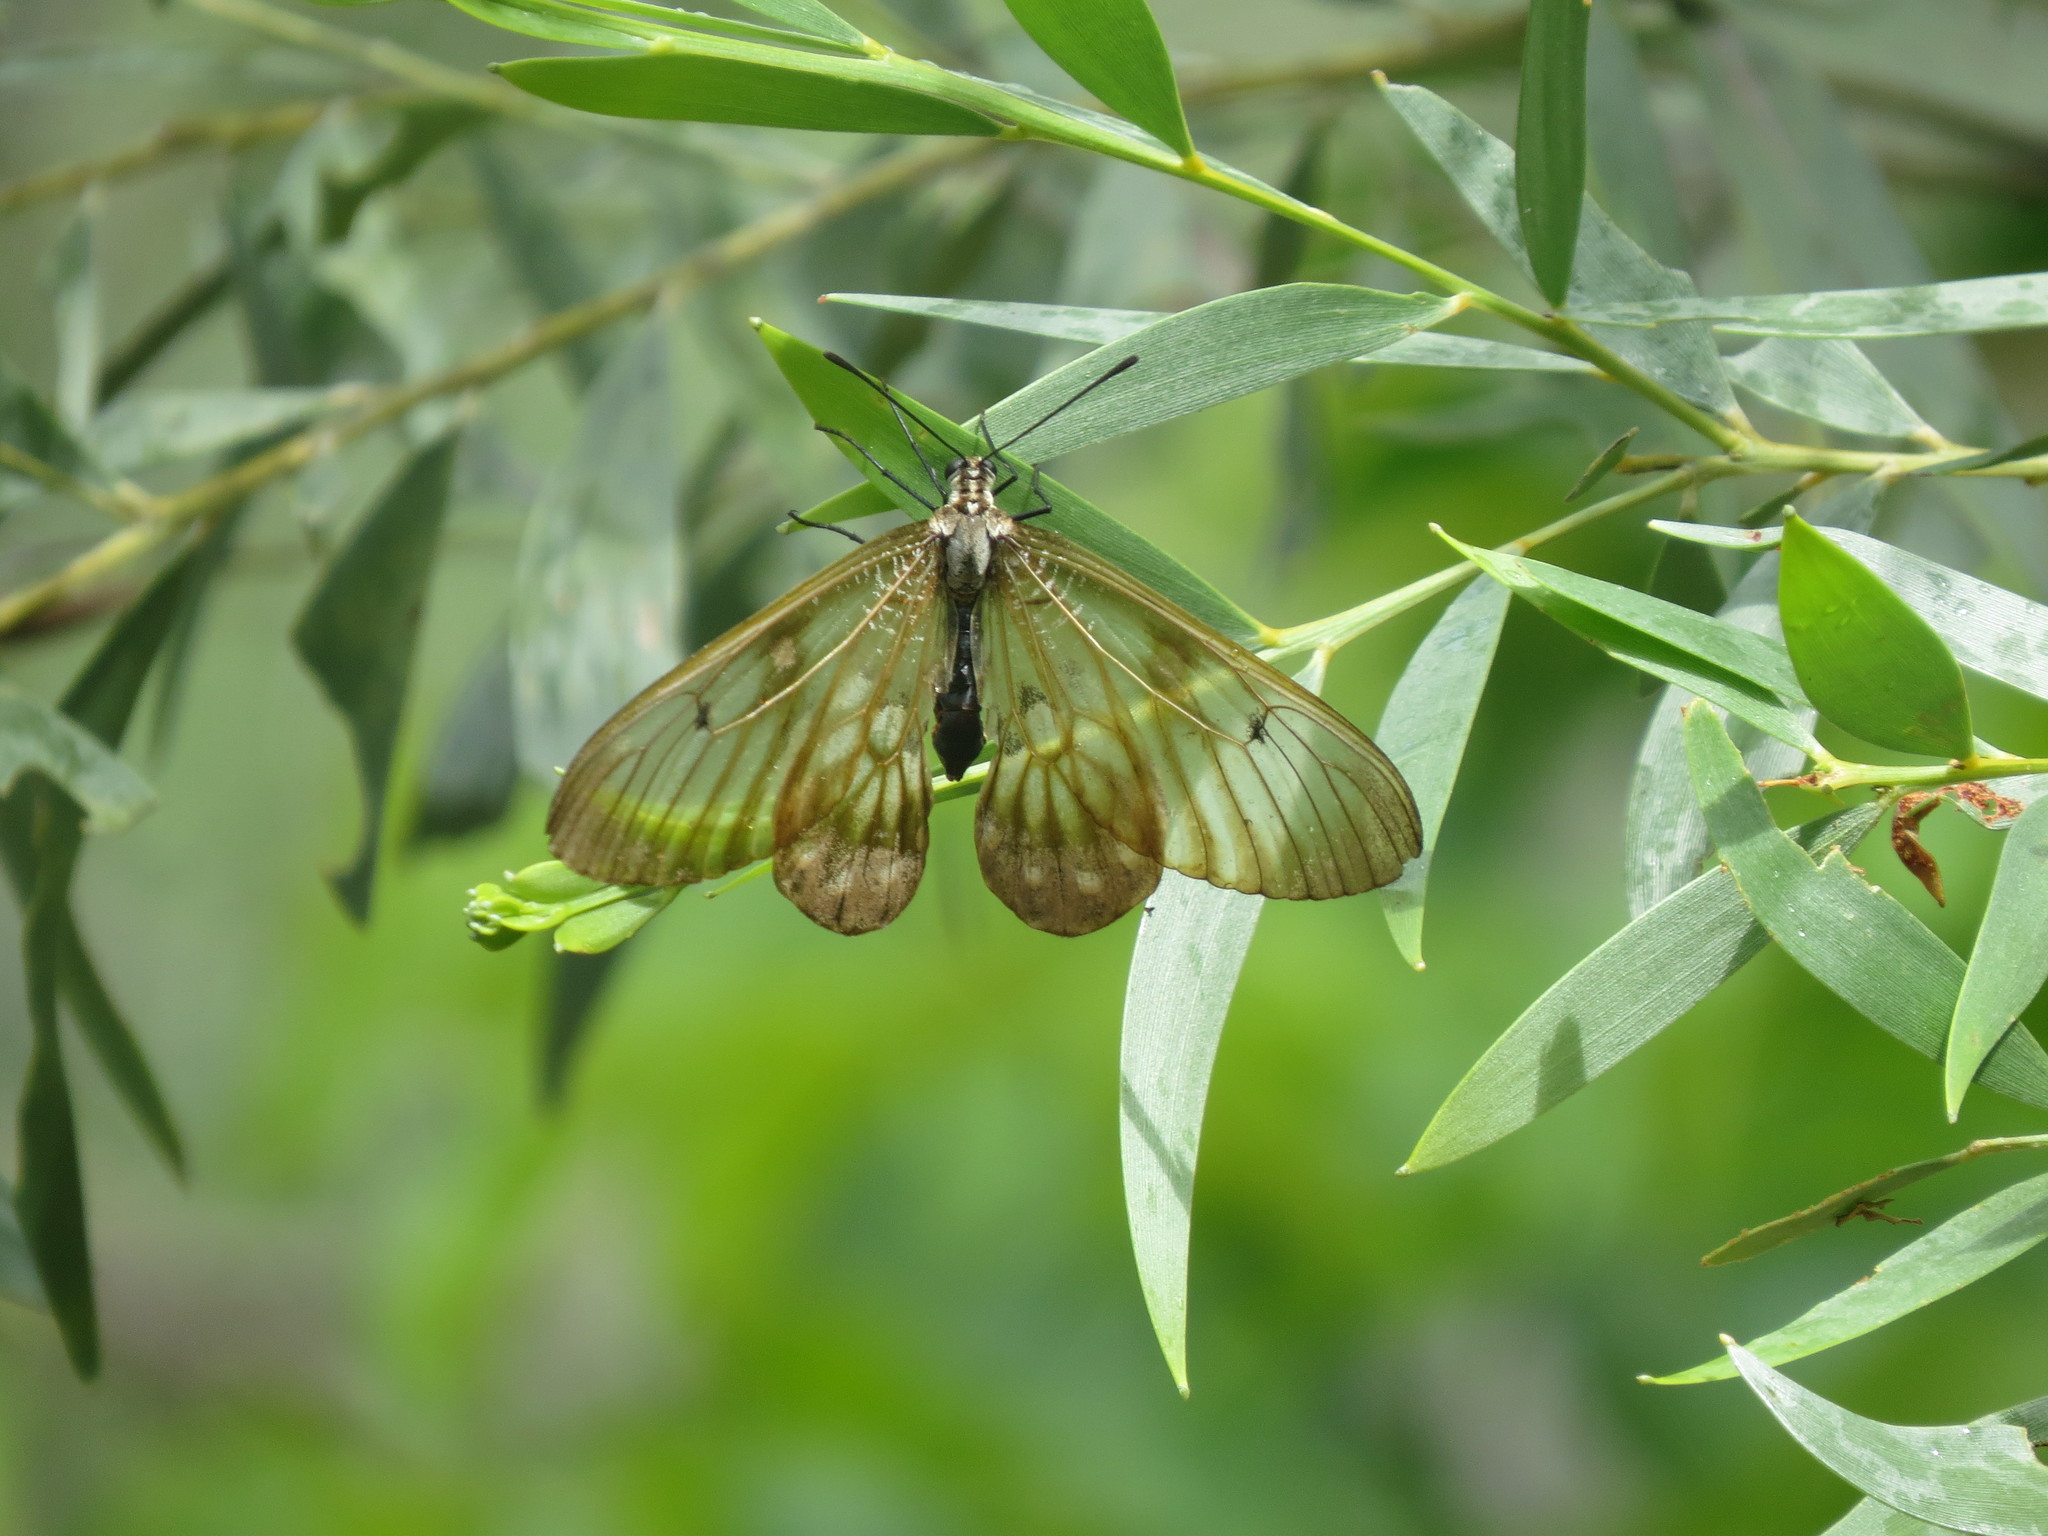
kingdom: Animalia
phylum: Arthropoda
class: Insecta
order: Lepidoptera
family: Papilionidae
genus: Cressida
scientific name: Cressida cressida
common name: Big greasy
